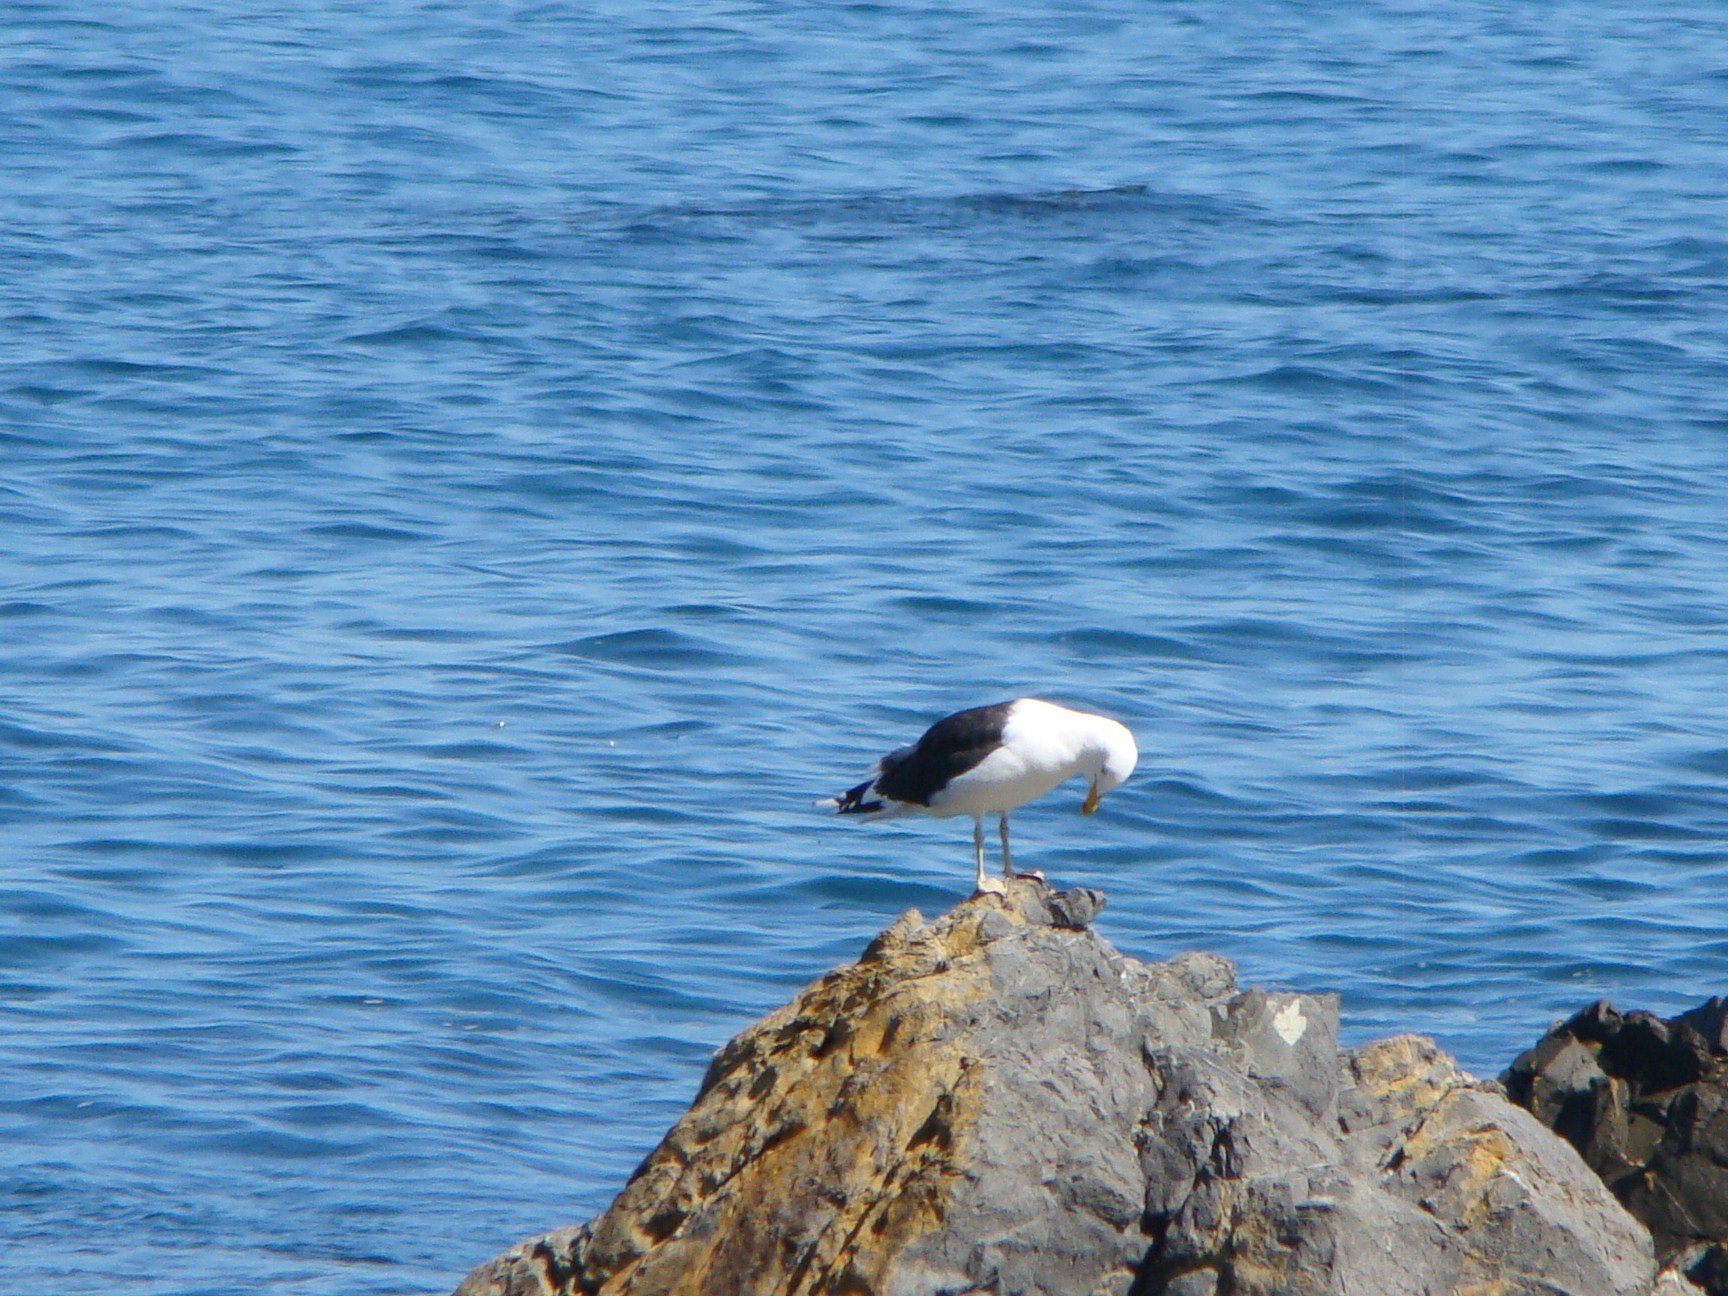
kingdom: Animalia
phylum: Chordata
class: Aves
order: Charadriiformes
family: Laridae
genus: Larus
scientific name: Larus dominicanus
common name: Kelp gull
